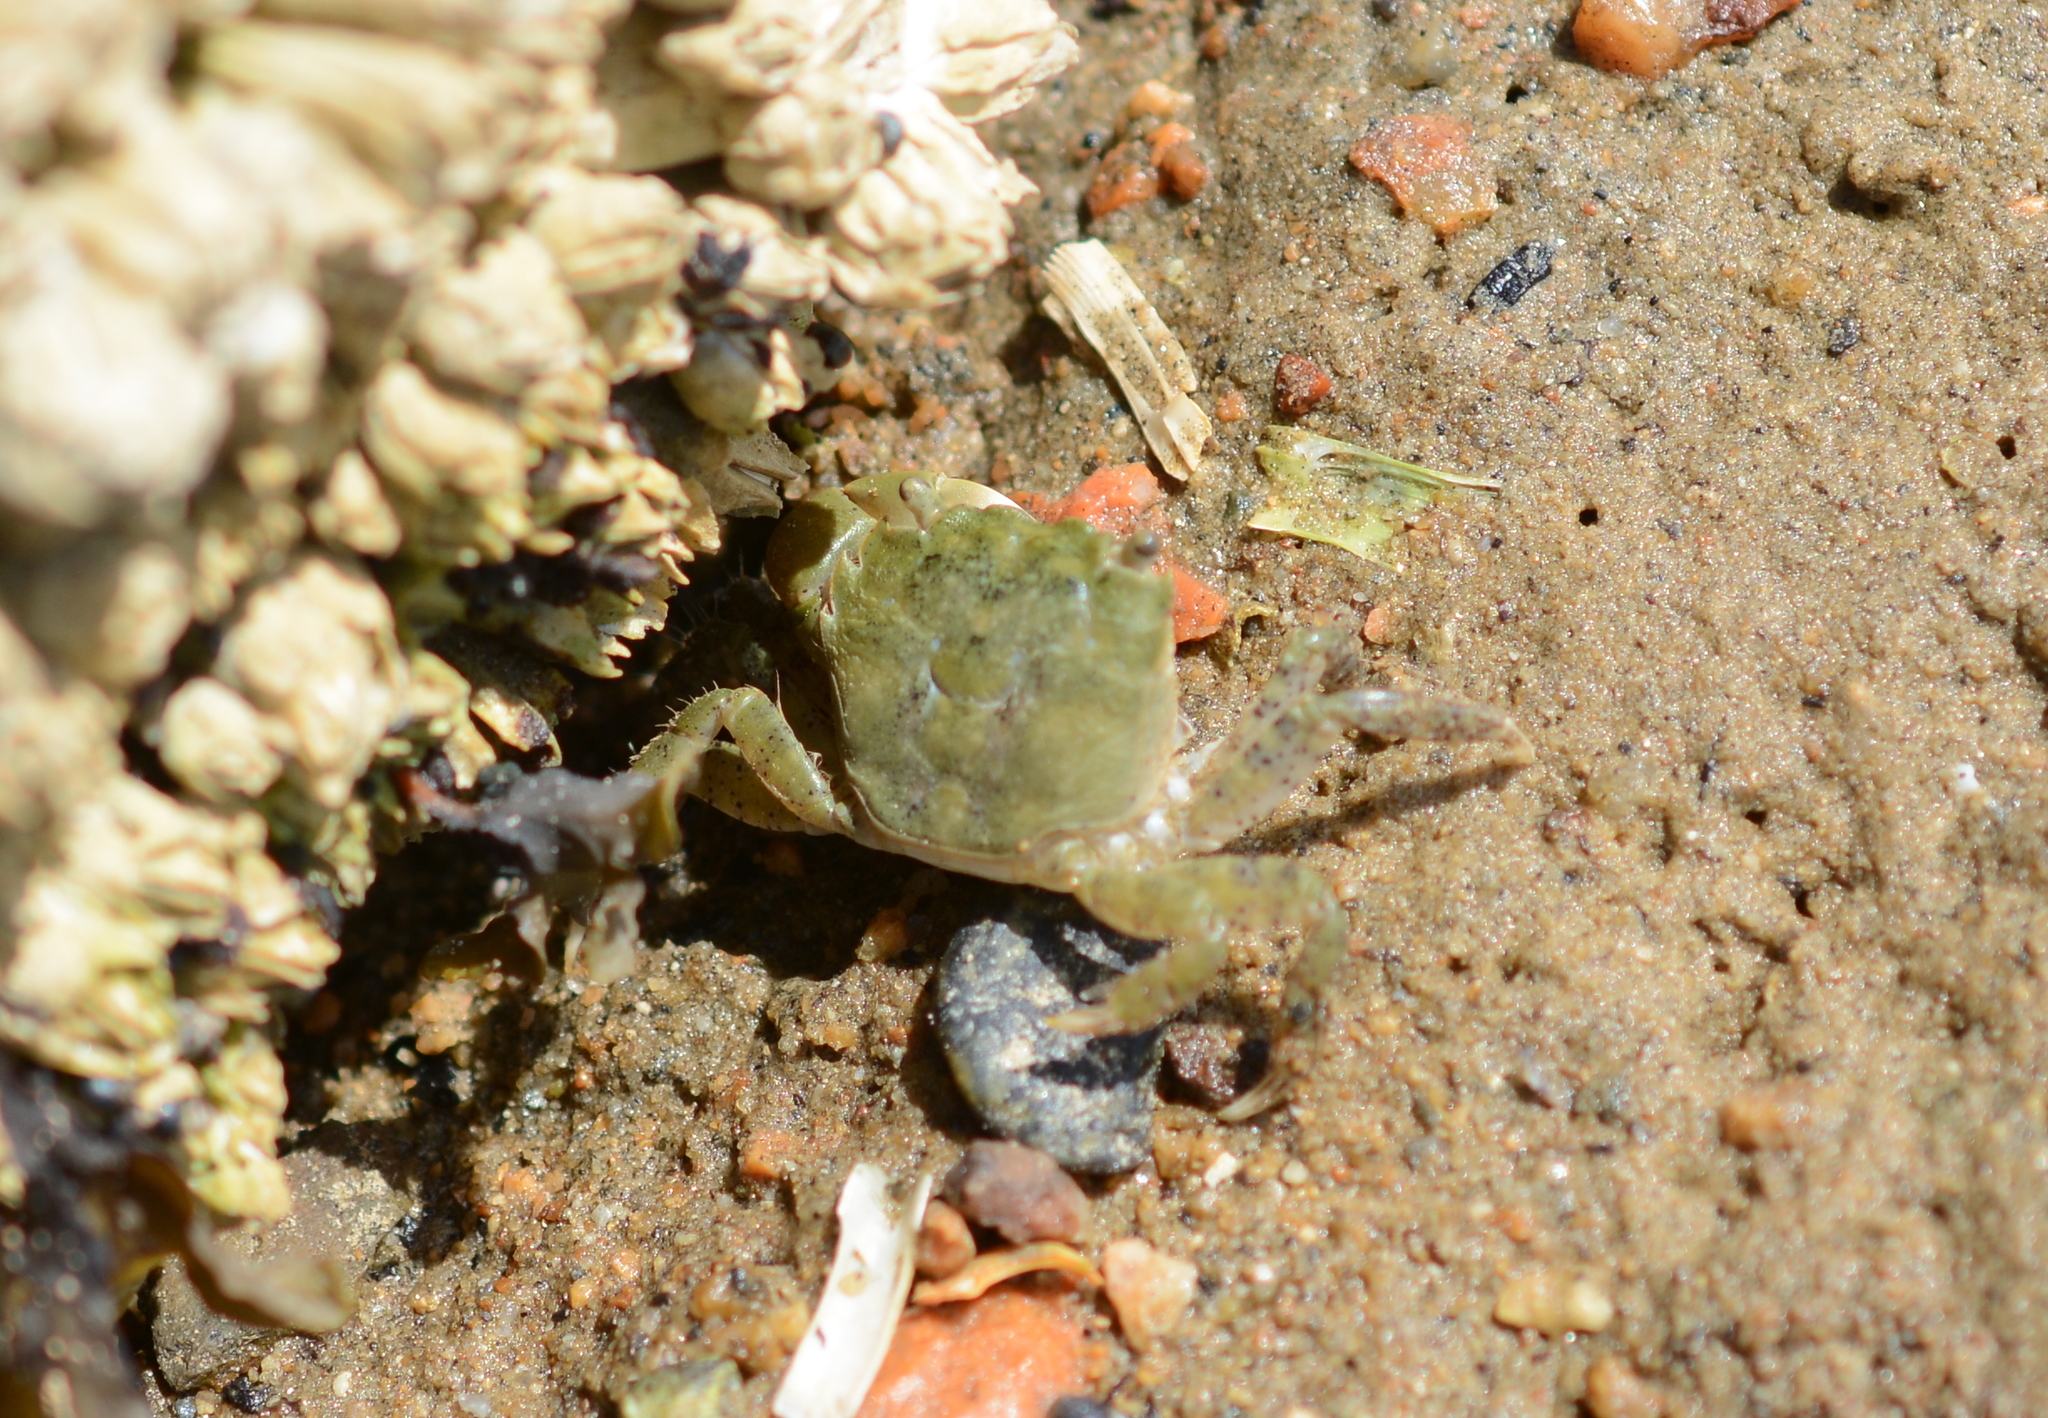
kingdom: Animalia
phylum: Arthropoda
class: Malacostraca
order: Decapoda
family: Varunidae
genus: Hemigrapsus
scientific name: Hemigrapsus oregonensis
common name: Yellow shore crab
